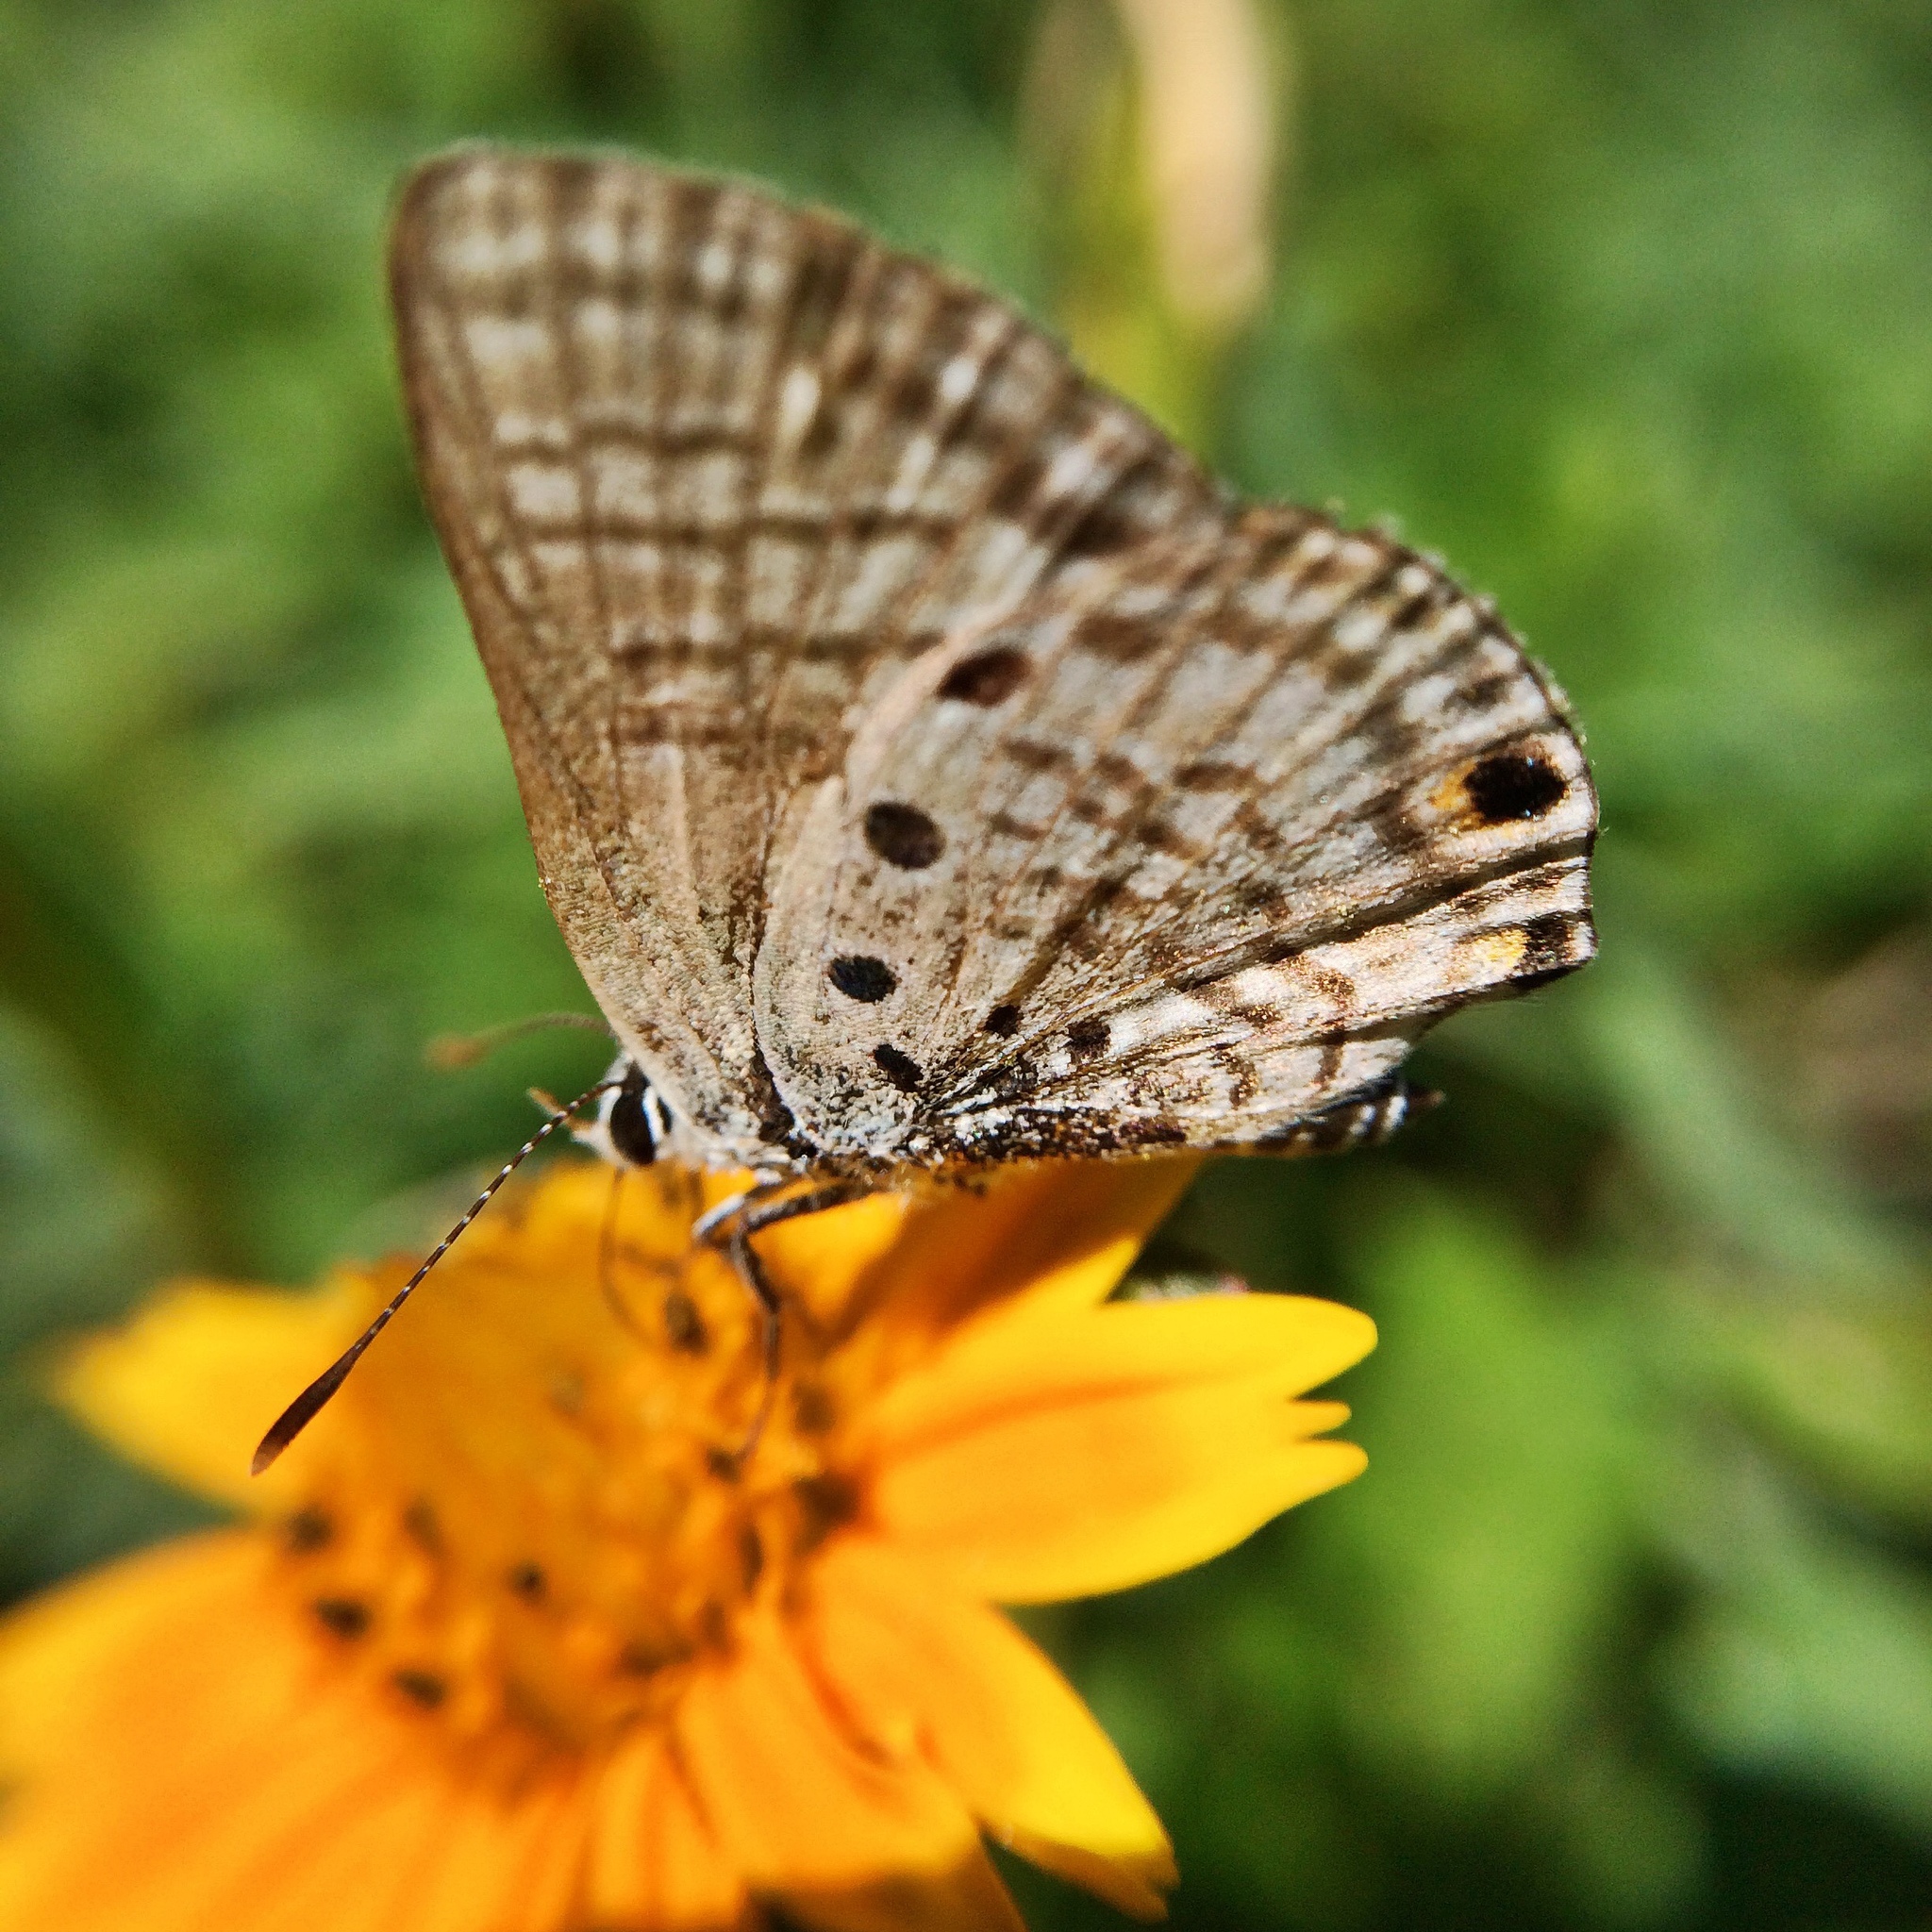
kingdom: Animalia
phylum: Arthropoda
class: Insecta
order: Lepidoptera
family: Lycaenidae
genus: Anthene
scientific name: Anthene amarah
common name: Black-striped hairtail
